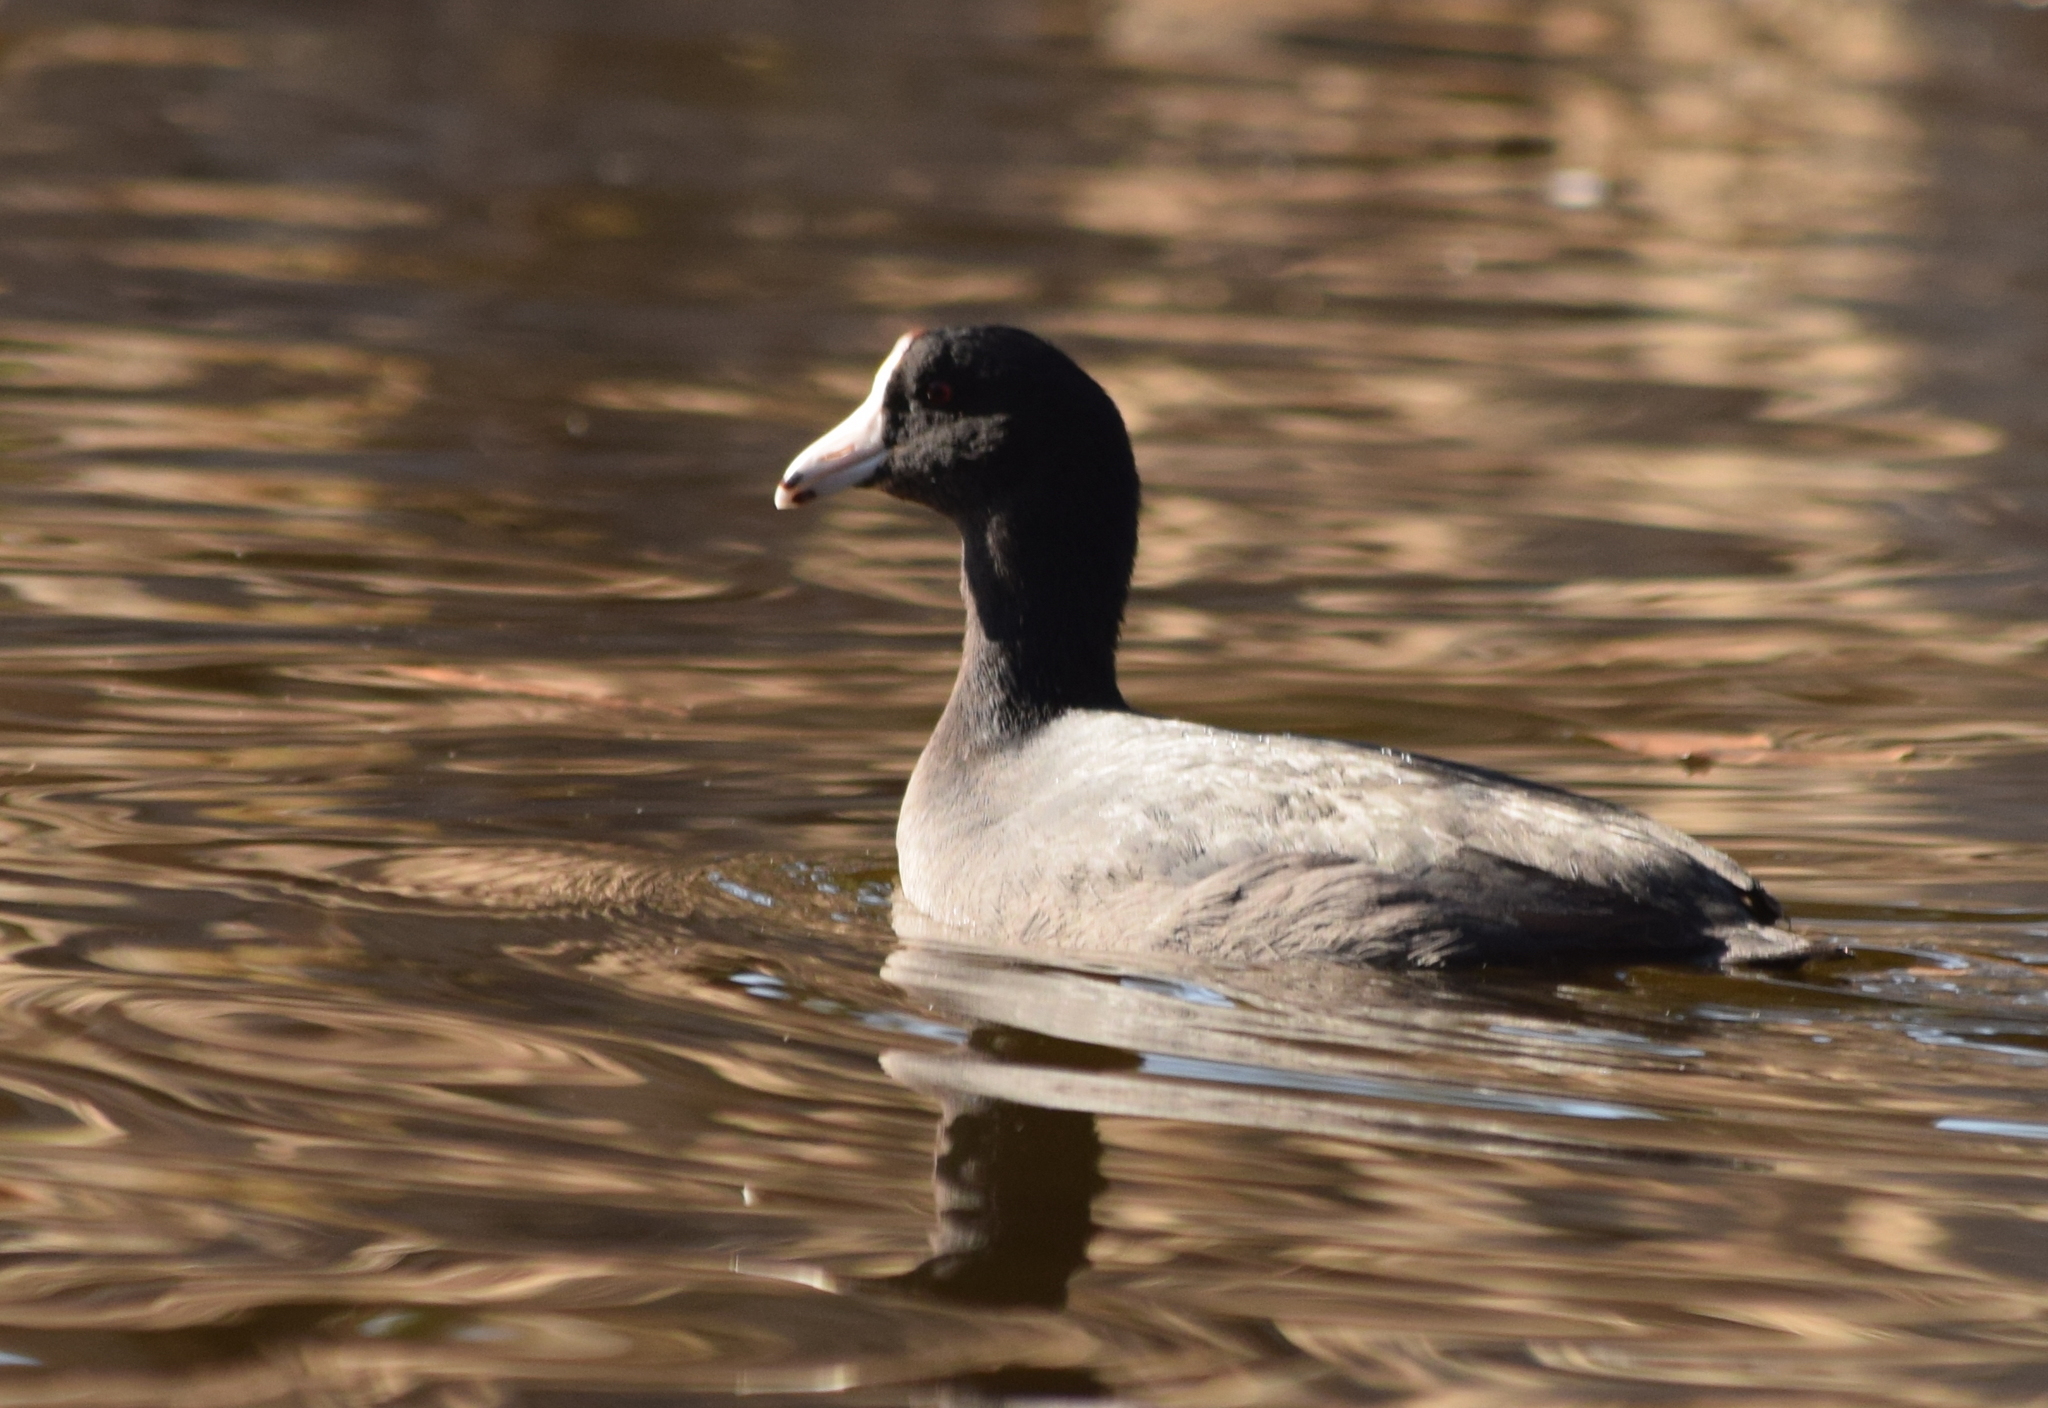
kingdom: Animalia
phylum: Chordata
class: Aves
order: Gruiformes
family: Rallidae
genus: Fulica
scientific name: Fulica americana
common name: American coot
